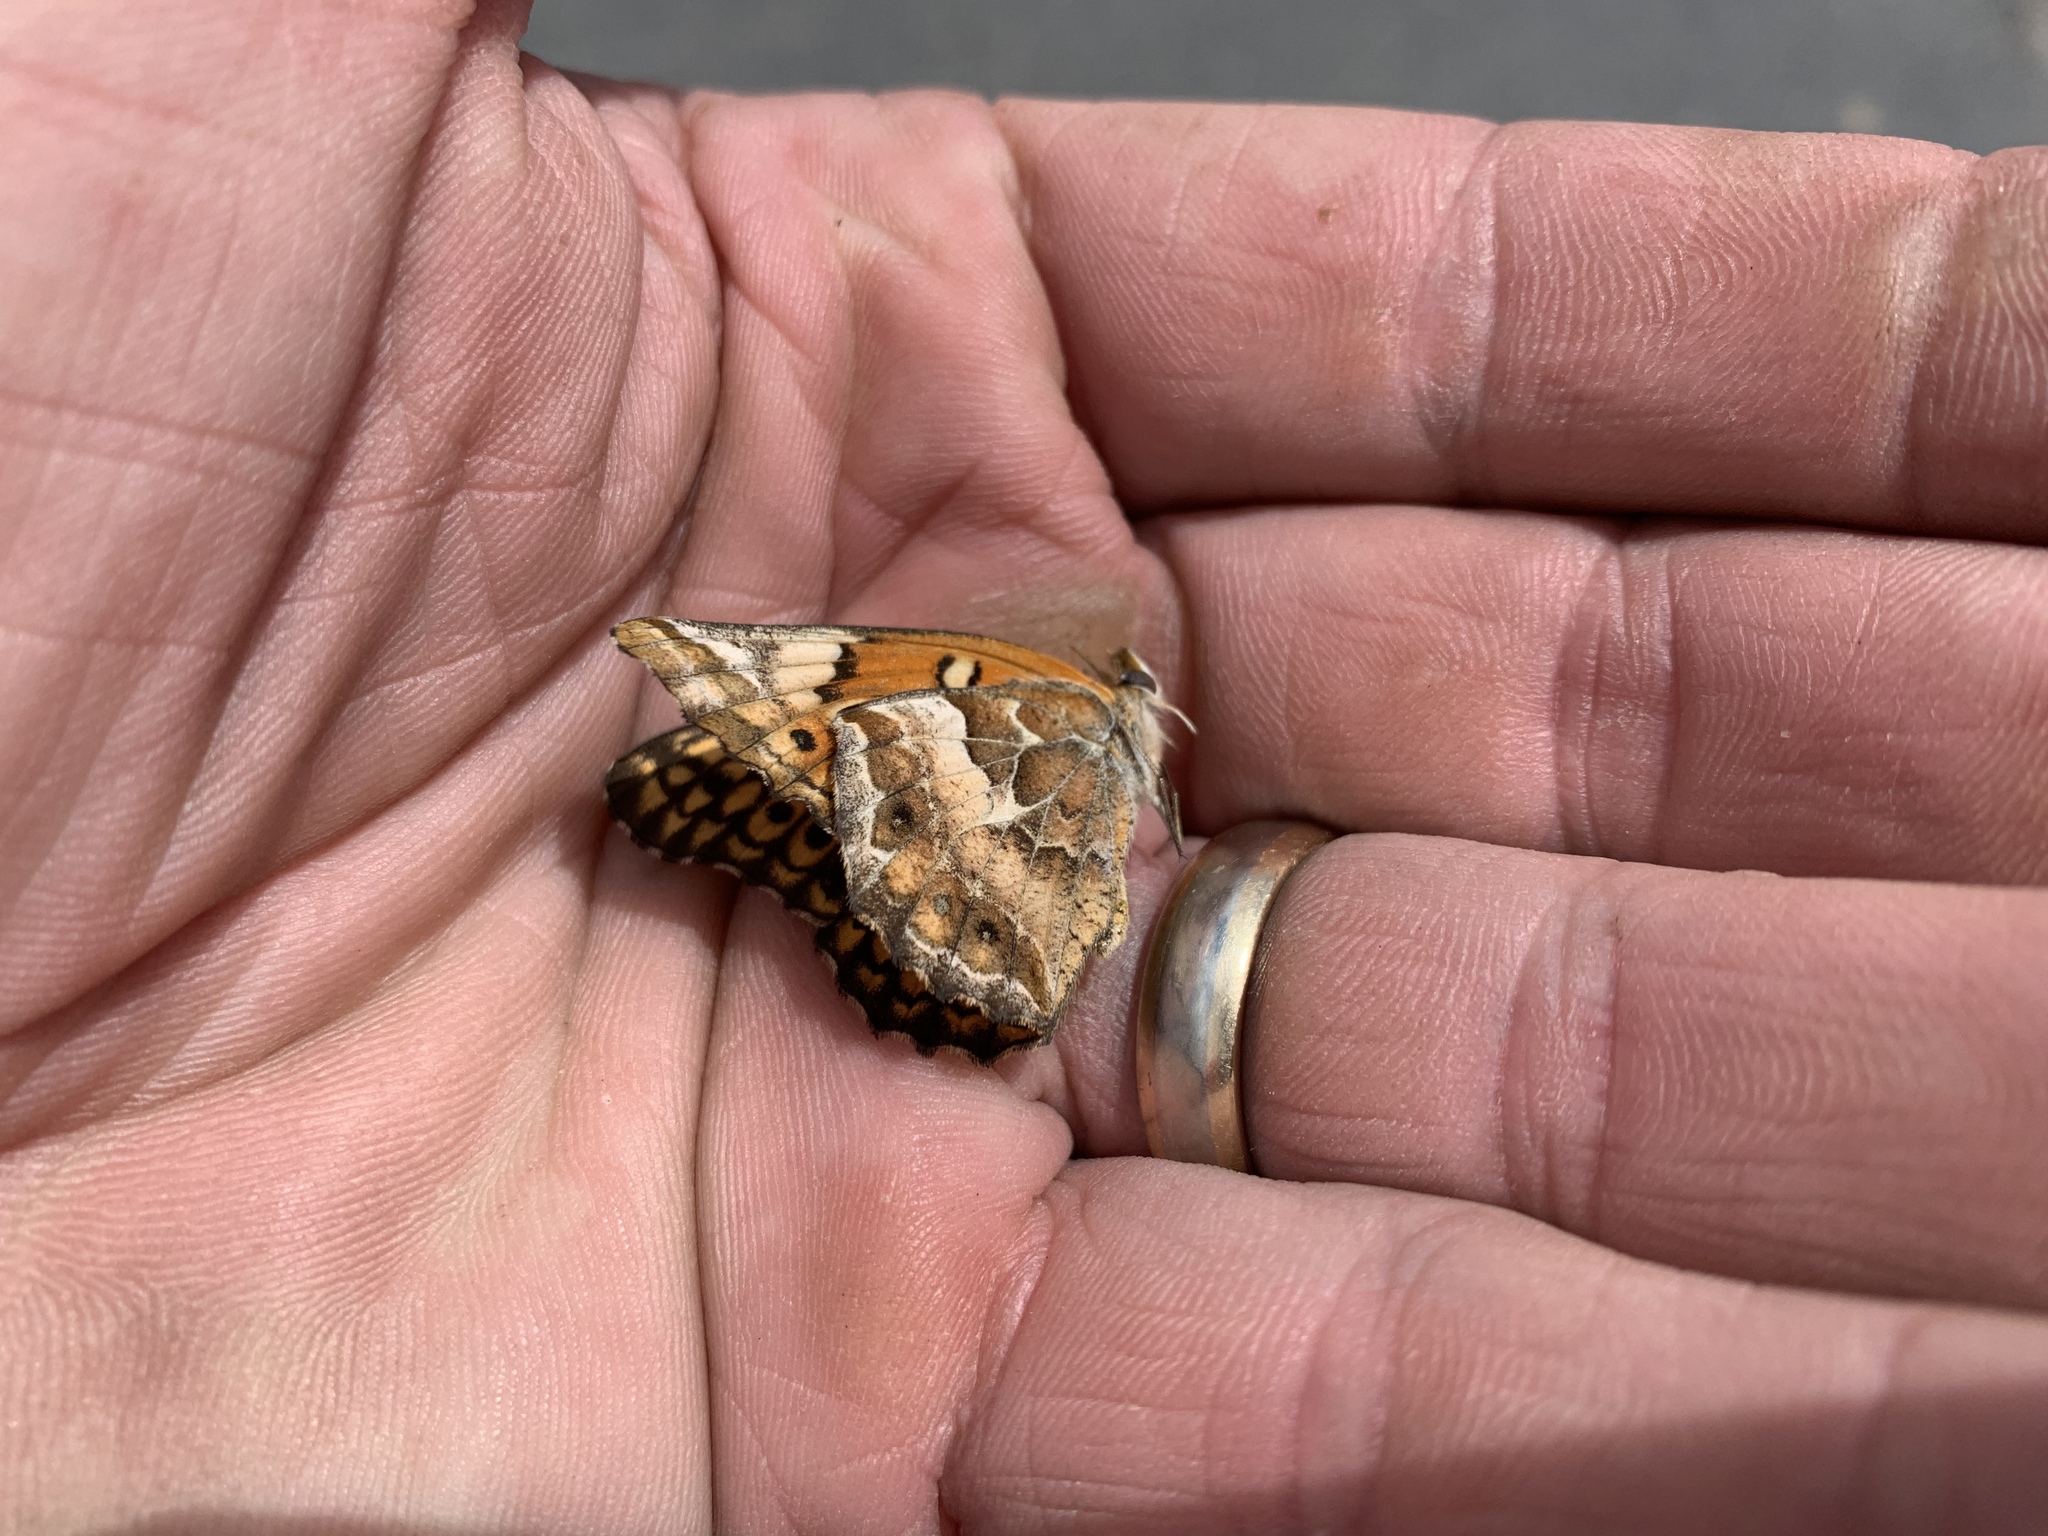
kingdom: Animalia
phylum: Arthropoda
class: Insecta
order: Lepidoptera
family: Nymphalidae
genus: Euptoieta
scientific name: Euptoieta claudia
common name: Variegated fritillary
